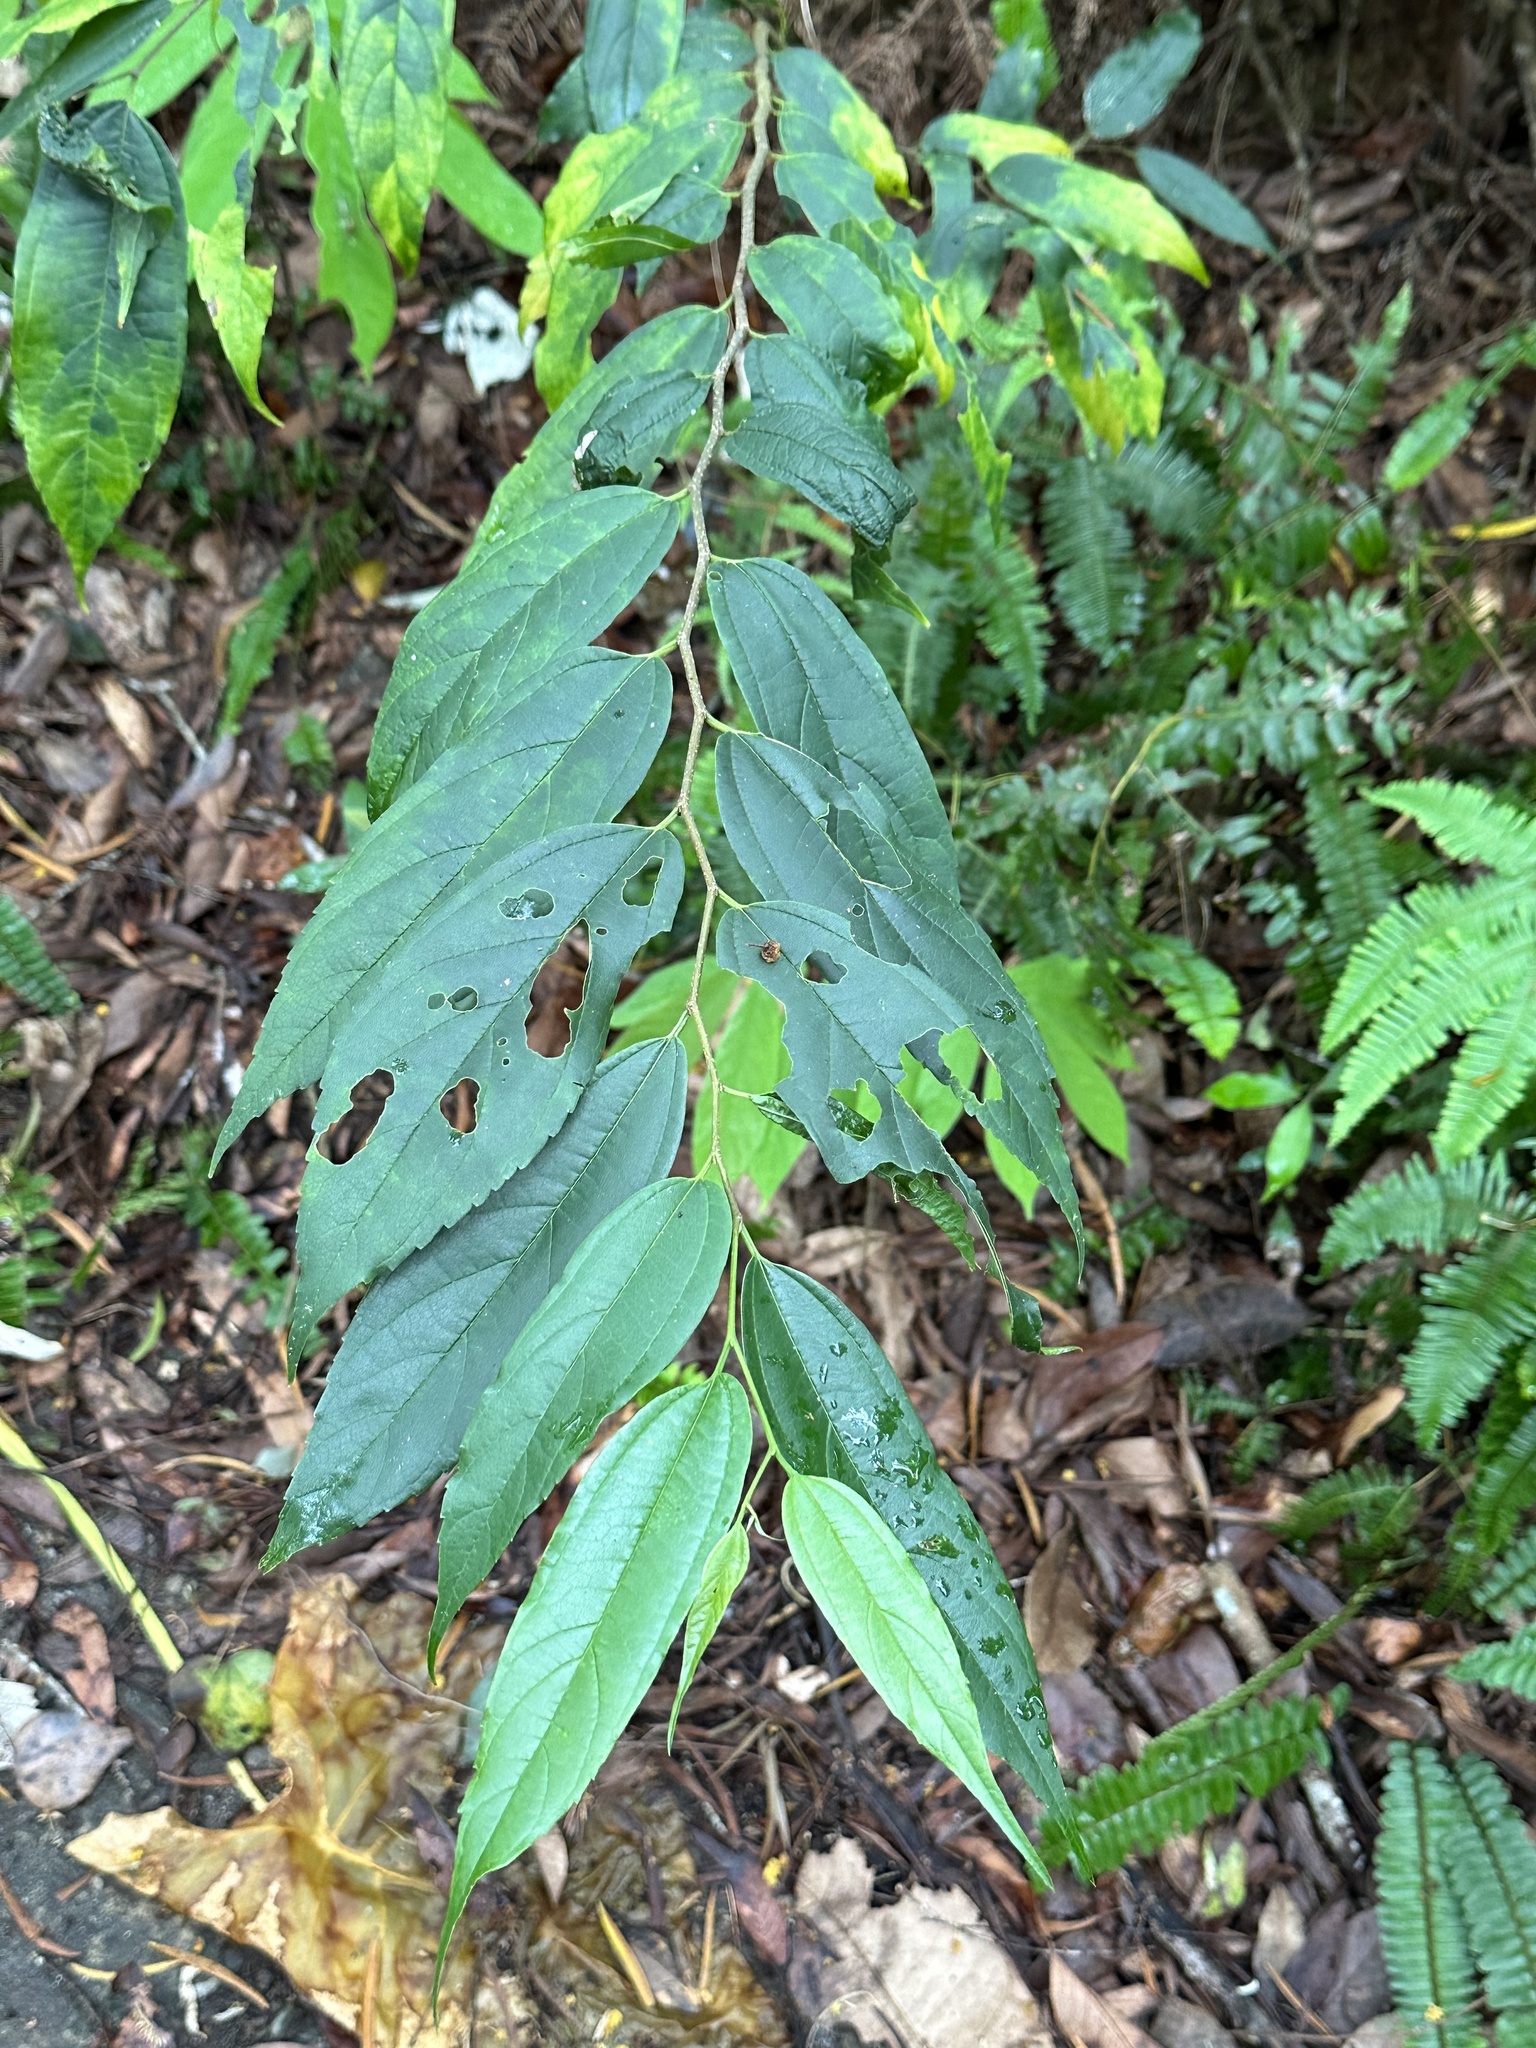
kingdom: Plantae
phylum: Tracheophyta
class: Magnoliopsida
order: Rosales
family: Cannabaceae
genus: Celtis
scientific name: Celtis tetrandra
